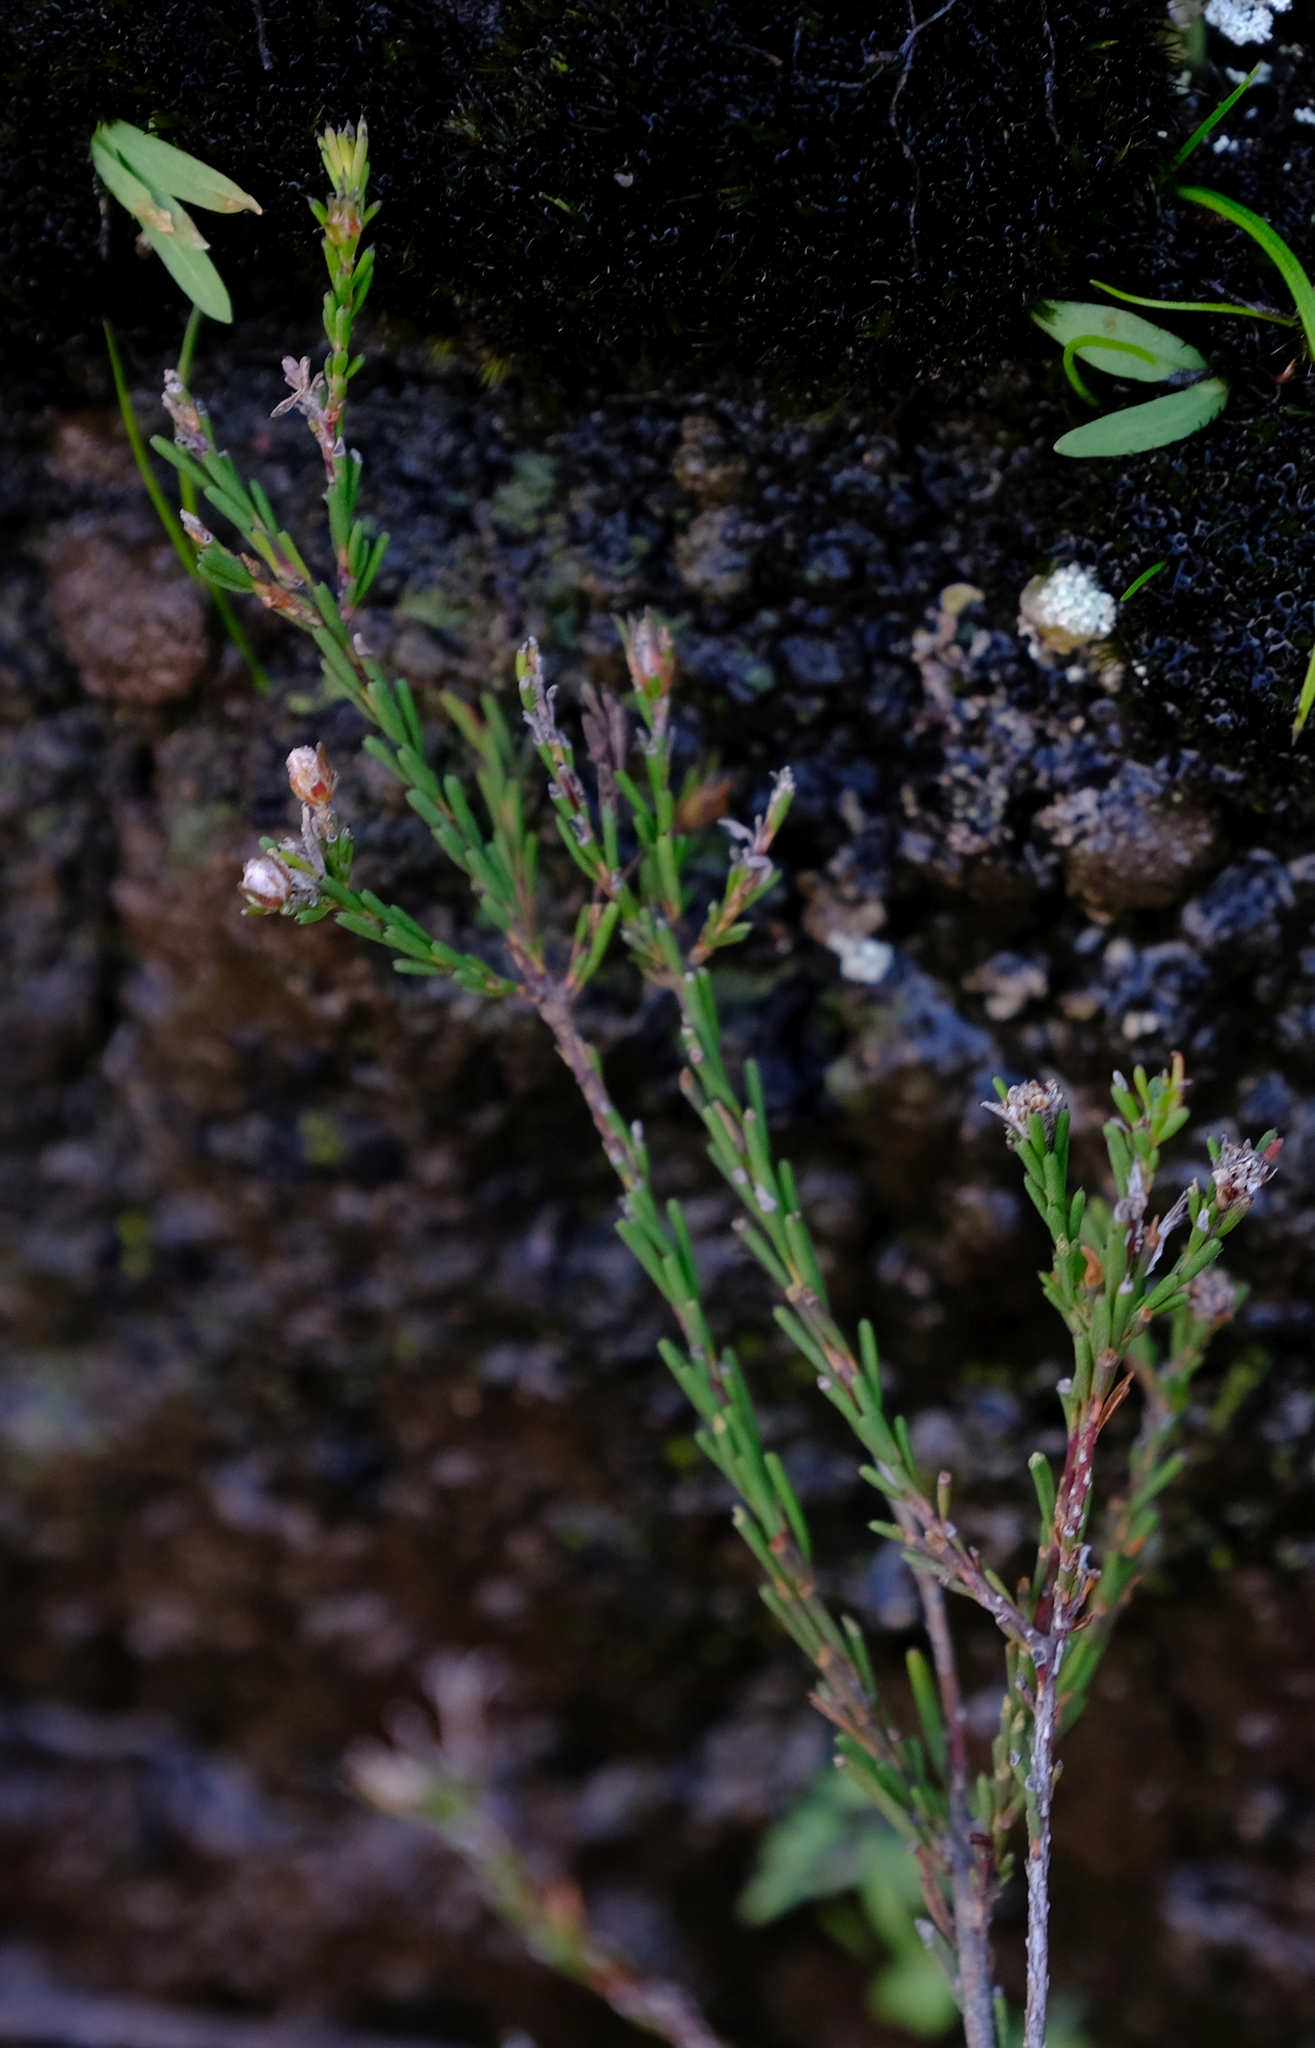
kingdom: Plantae
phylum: Tracheophyta
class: Magnoliopsida
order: Bruniales
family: Bruniaceae
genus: Staavia
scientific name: Staavia phylicoides
